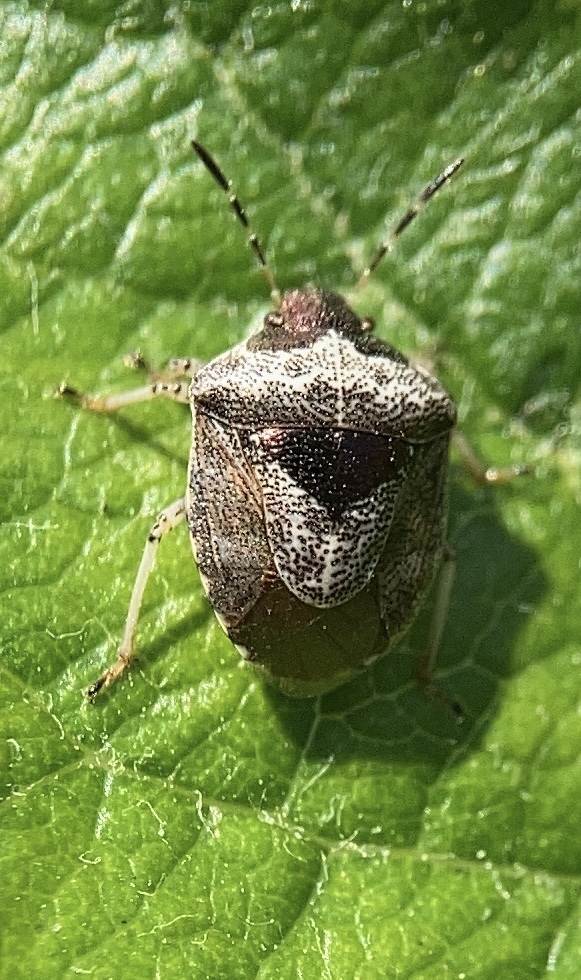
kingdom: Animalia
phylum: Arthropoda
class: Insecta
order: Hemiptera
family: Pentatomidae
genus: Eysarcoris
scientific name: Eysarcoris venustissimus
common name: Woundwort shieldbug
